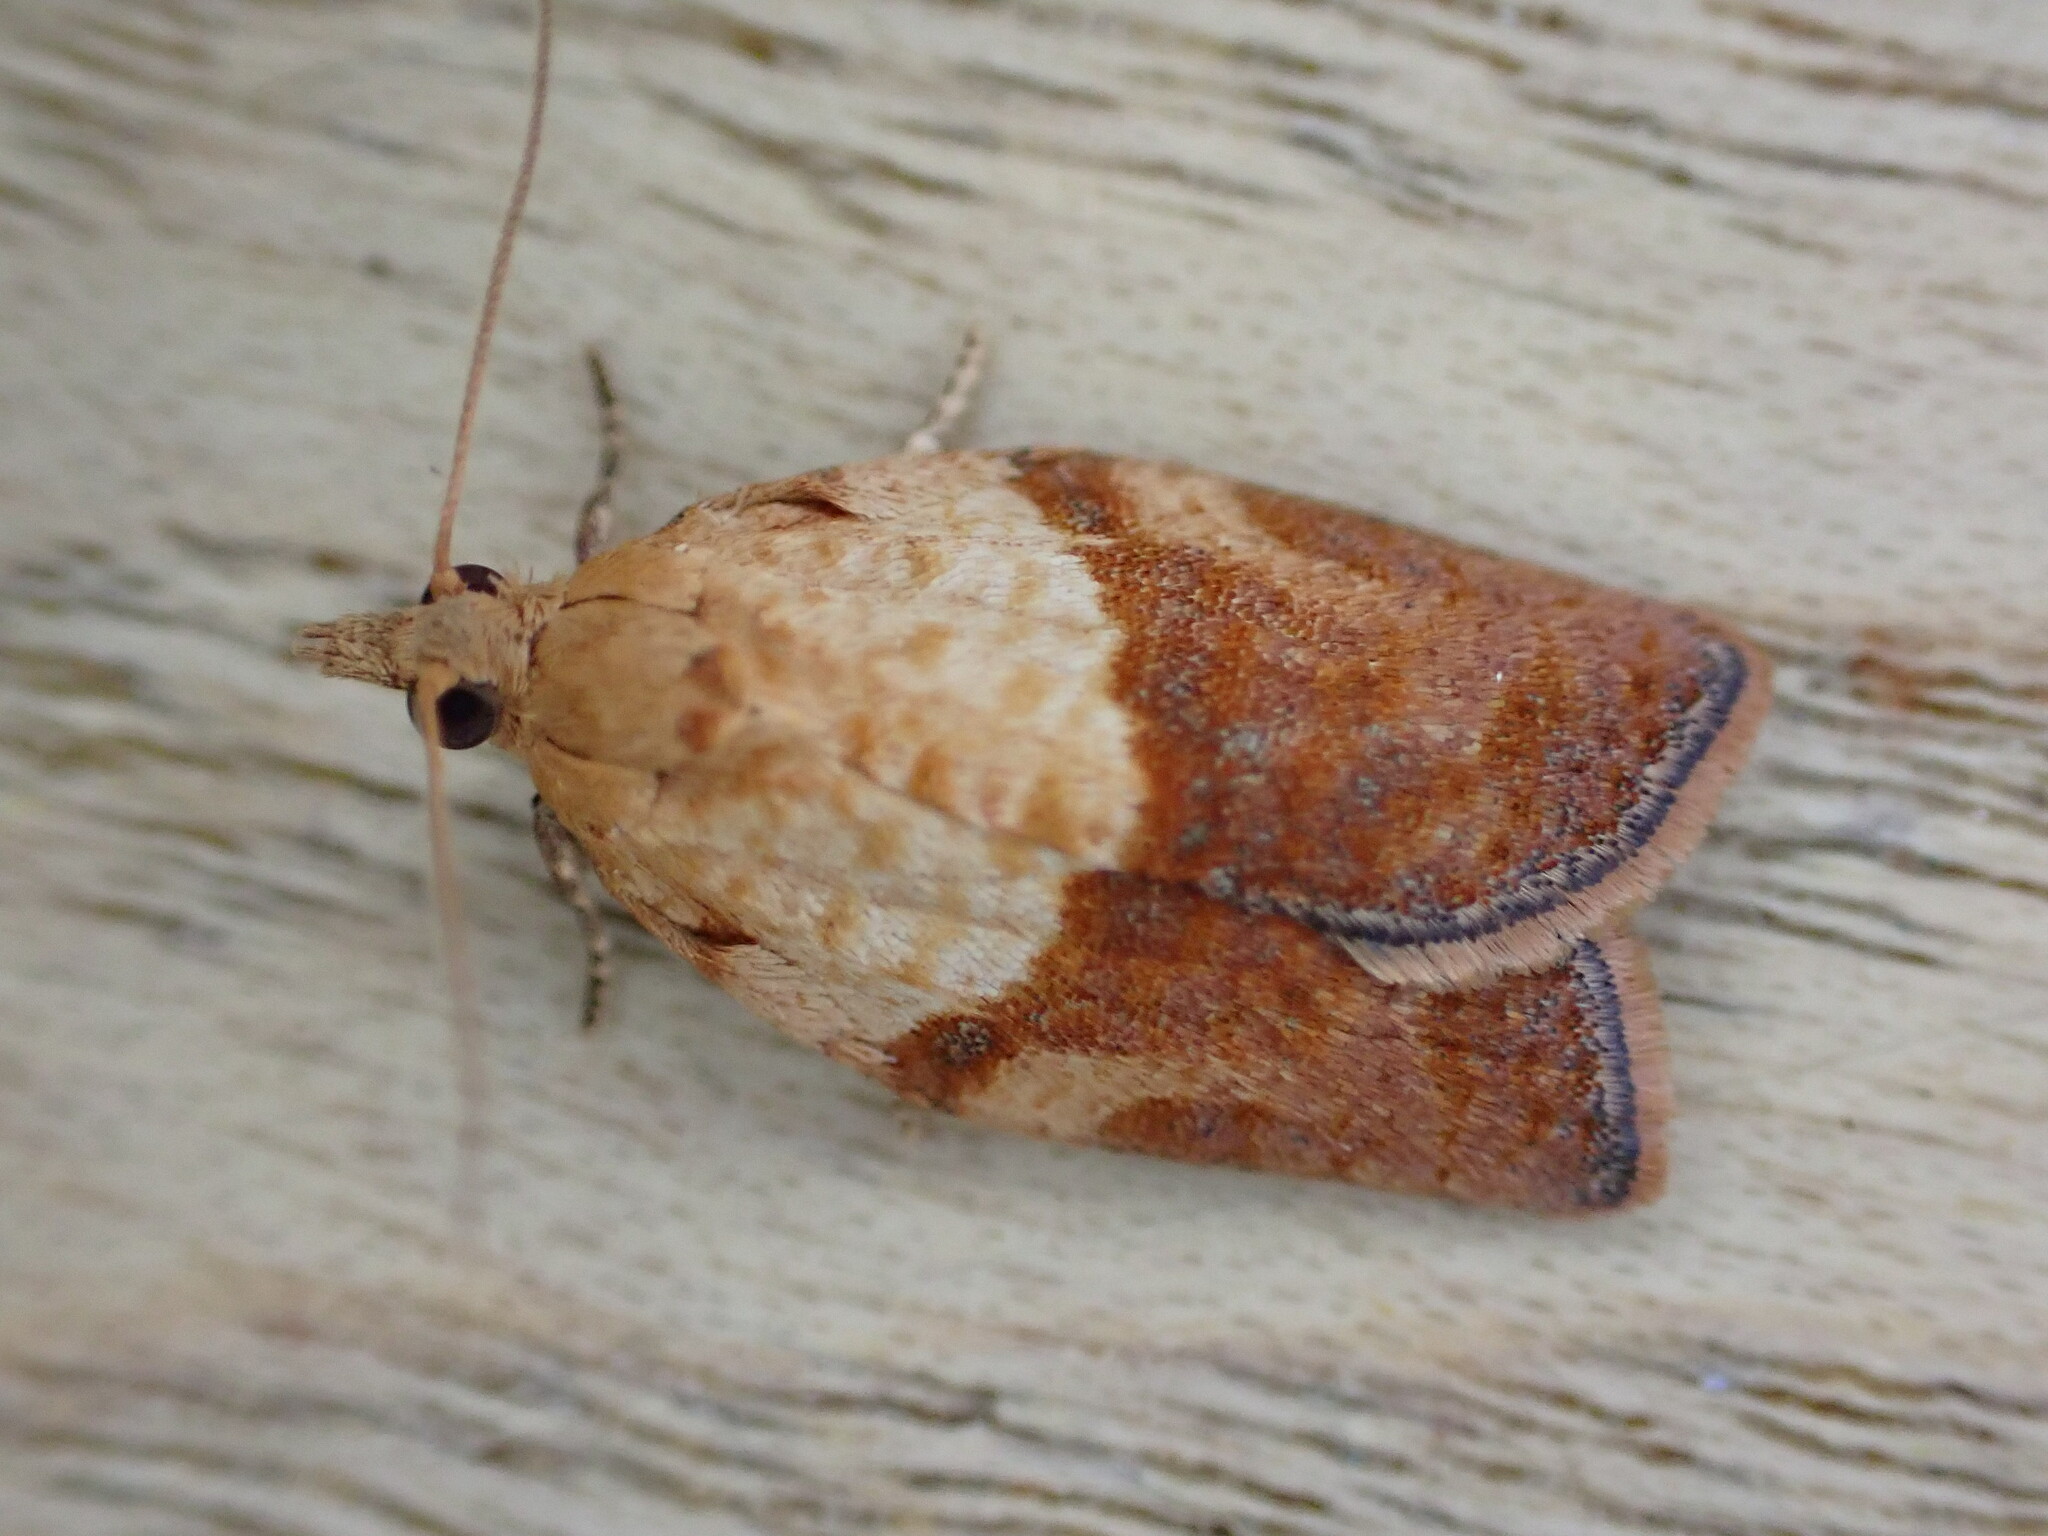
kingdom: Animalia
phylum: Arthropoda
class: Insecta
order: Lepidoptera
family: Tortricidae
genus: Epiphyas
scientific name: Epiphyas postvittana
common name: Light brown apple moth
